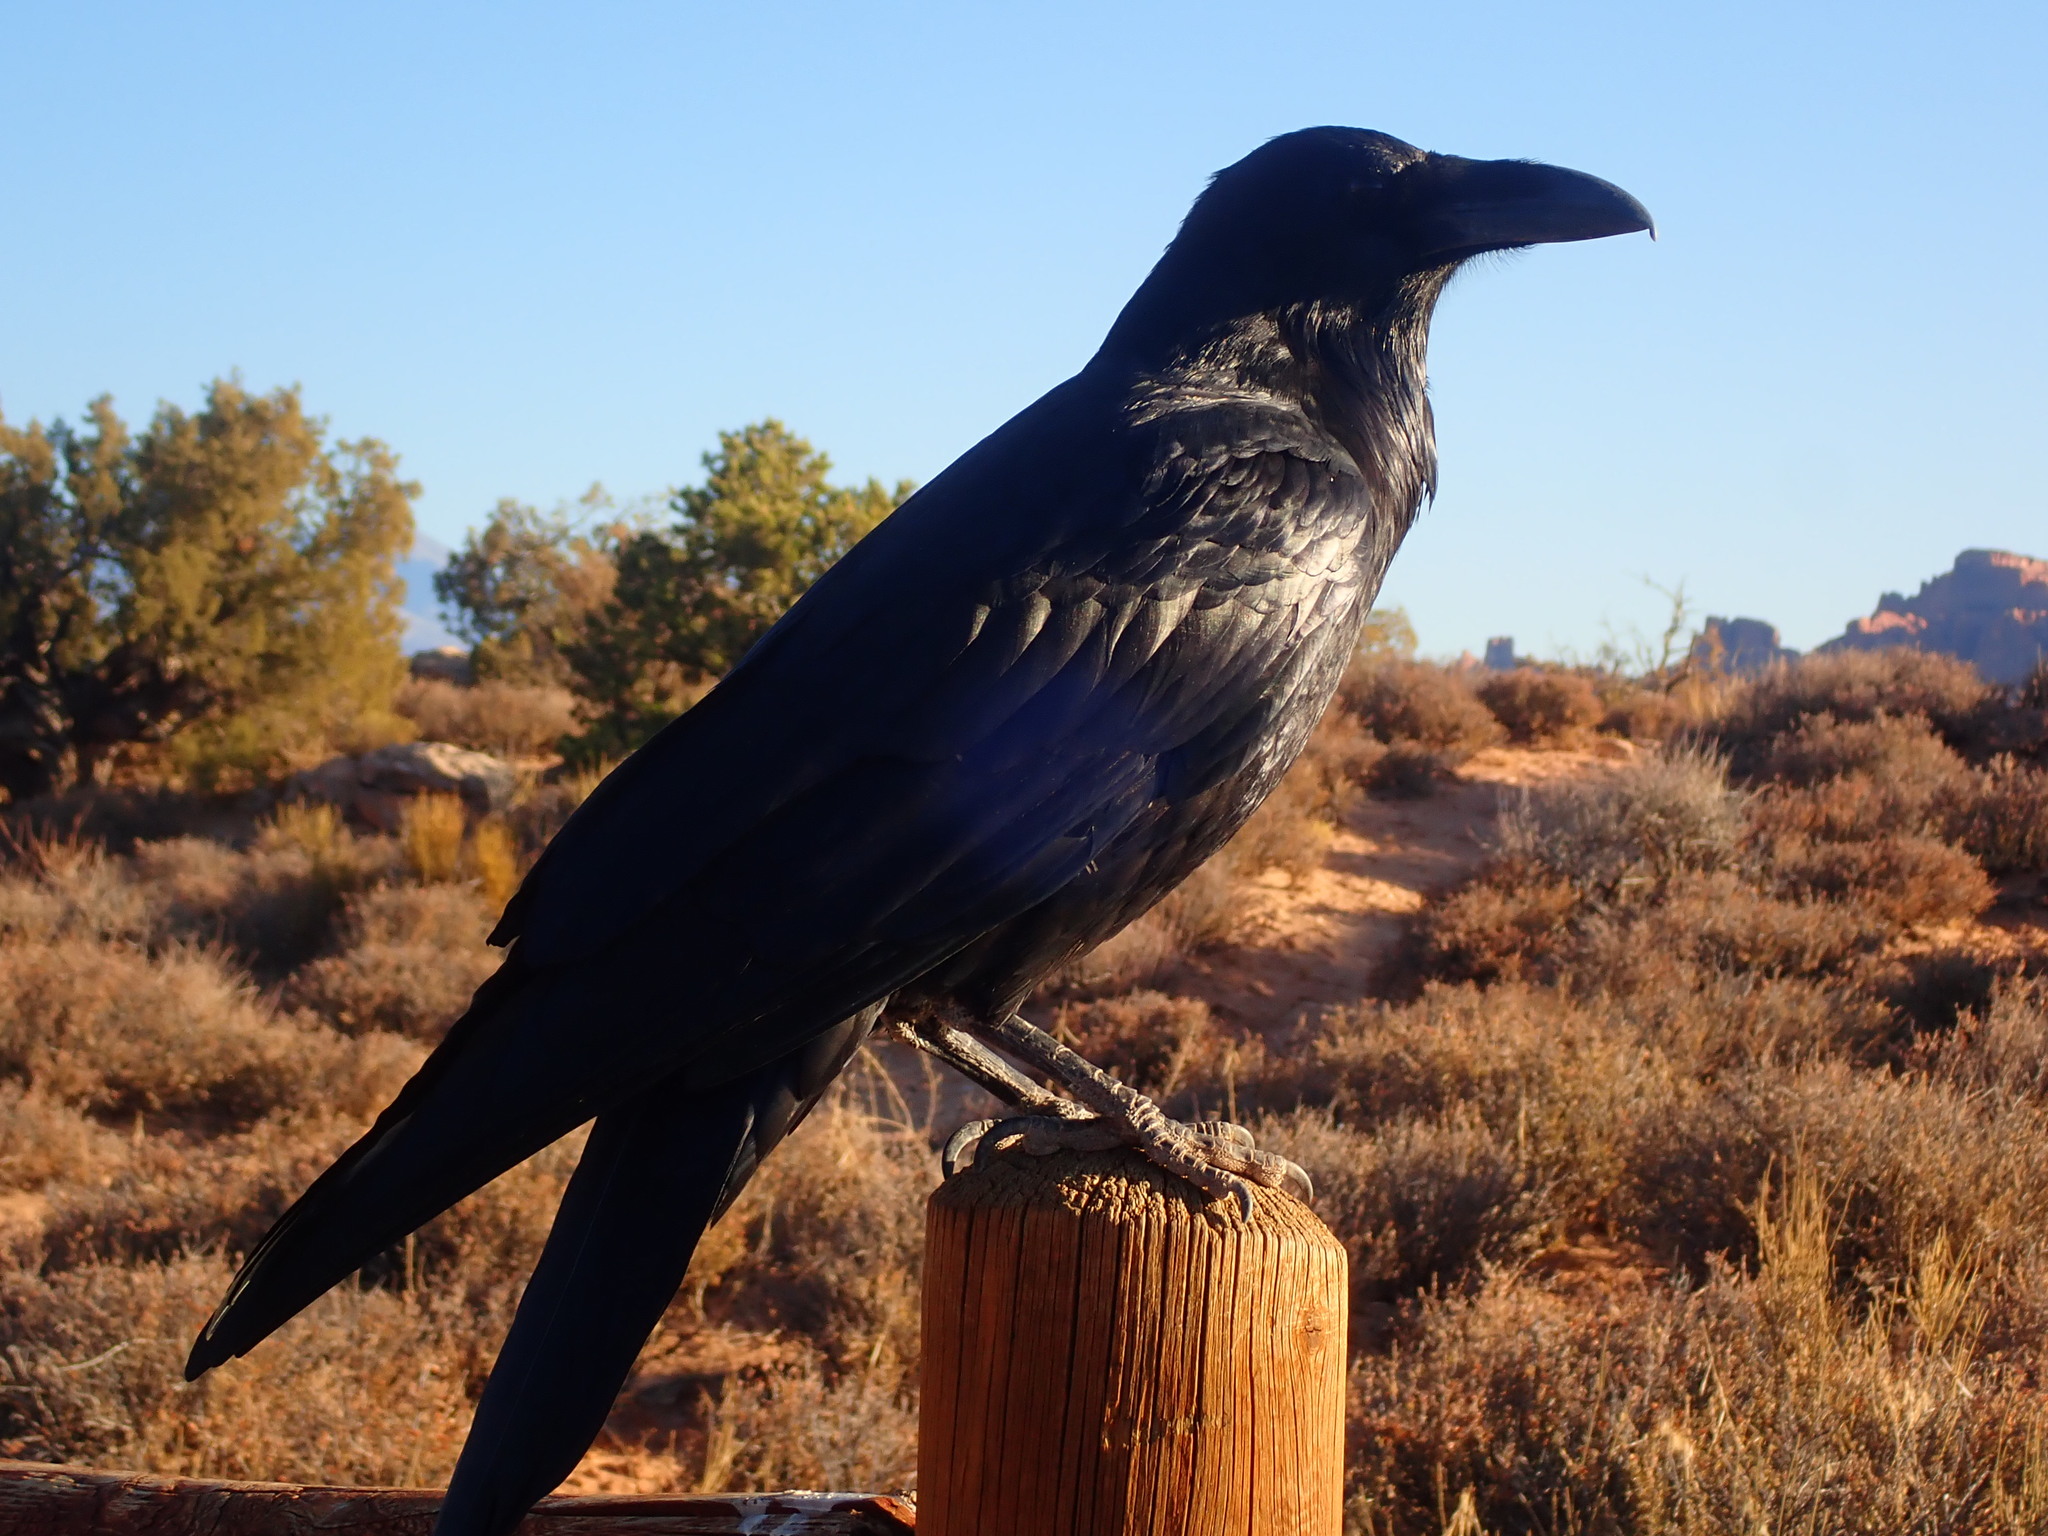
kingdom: Animalia
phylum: Chordata
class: Aves
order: Passeriformes
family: Corvidae
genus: Corvus
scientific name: Corvus corax
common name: Common raven
